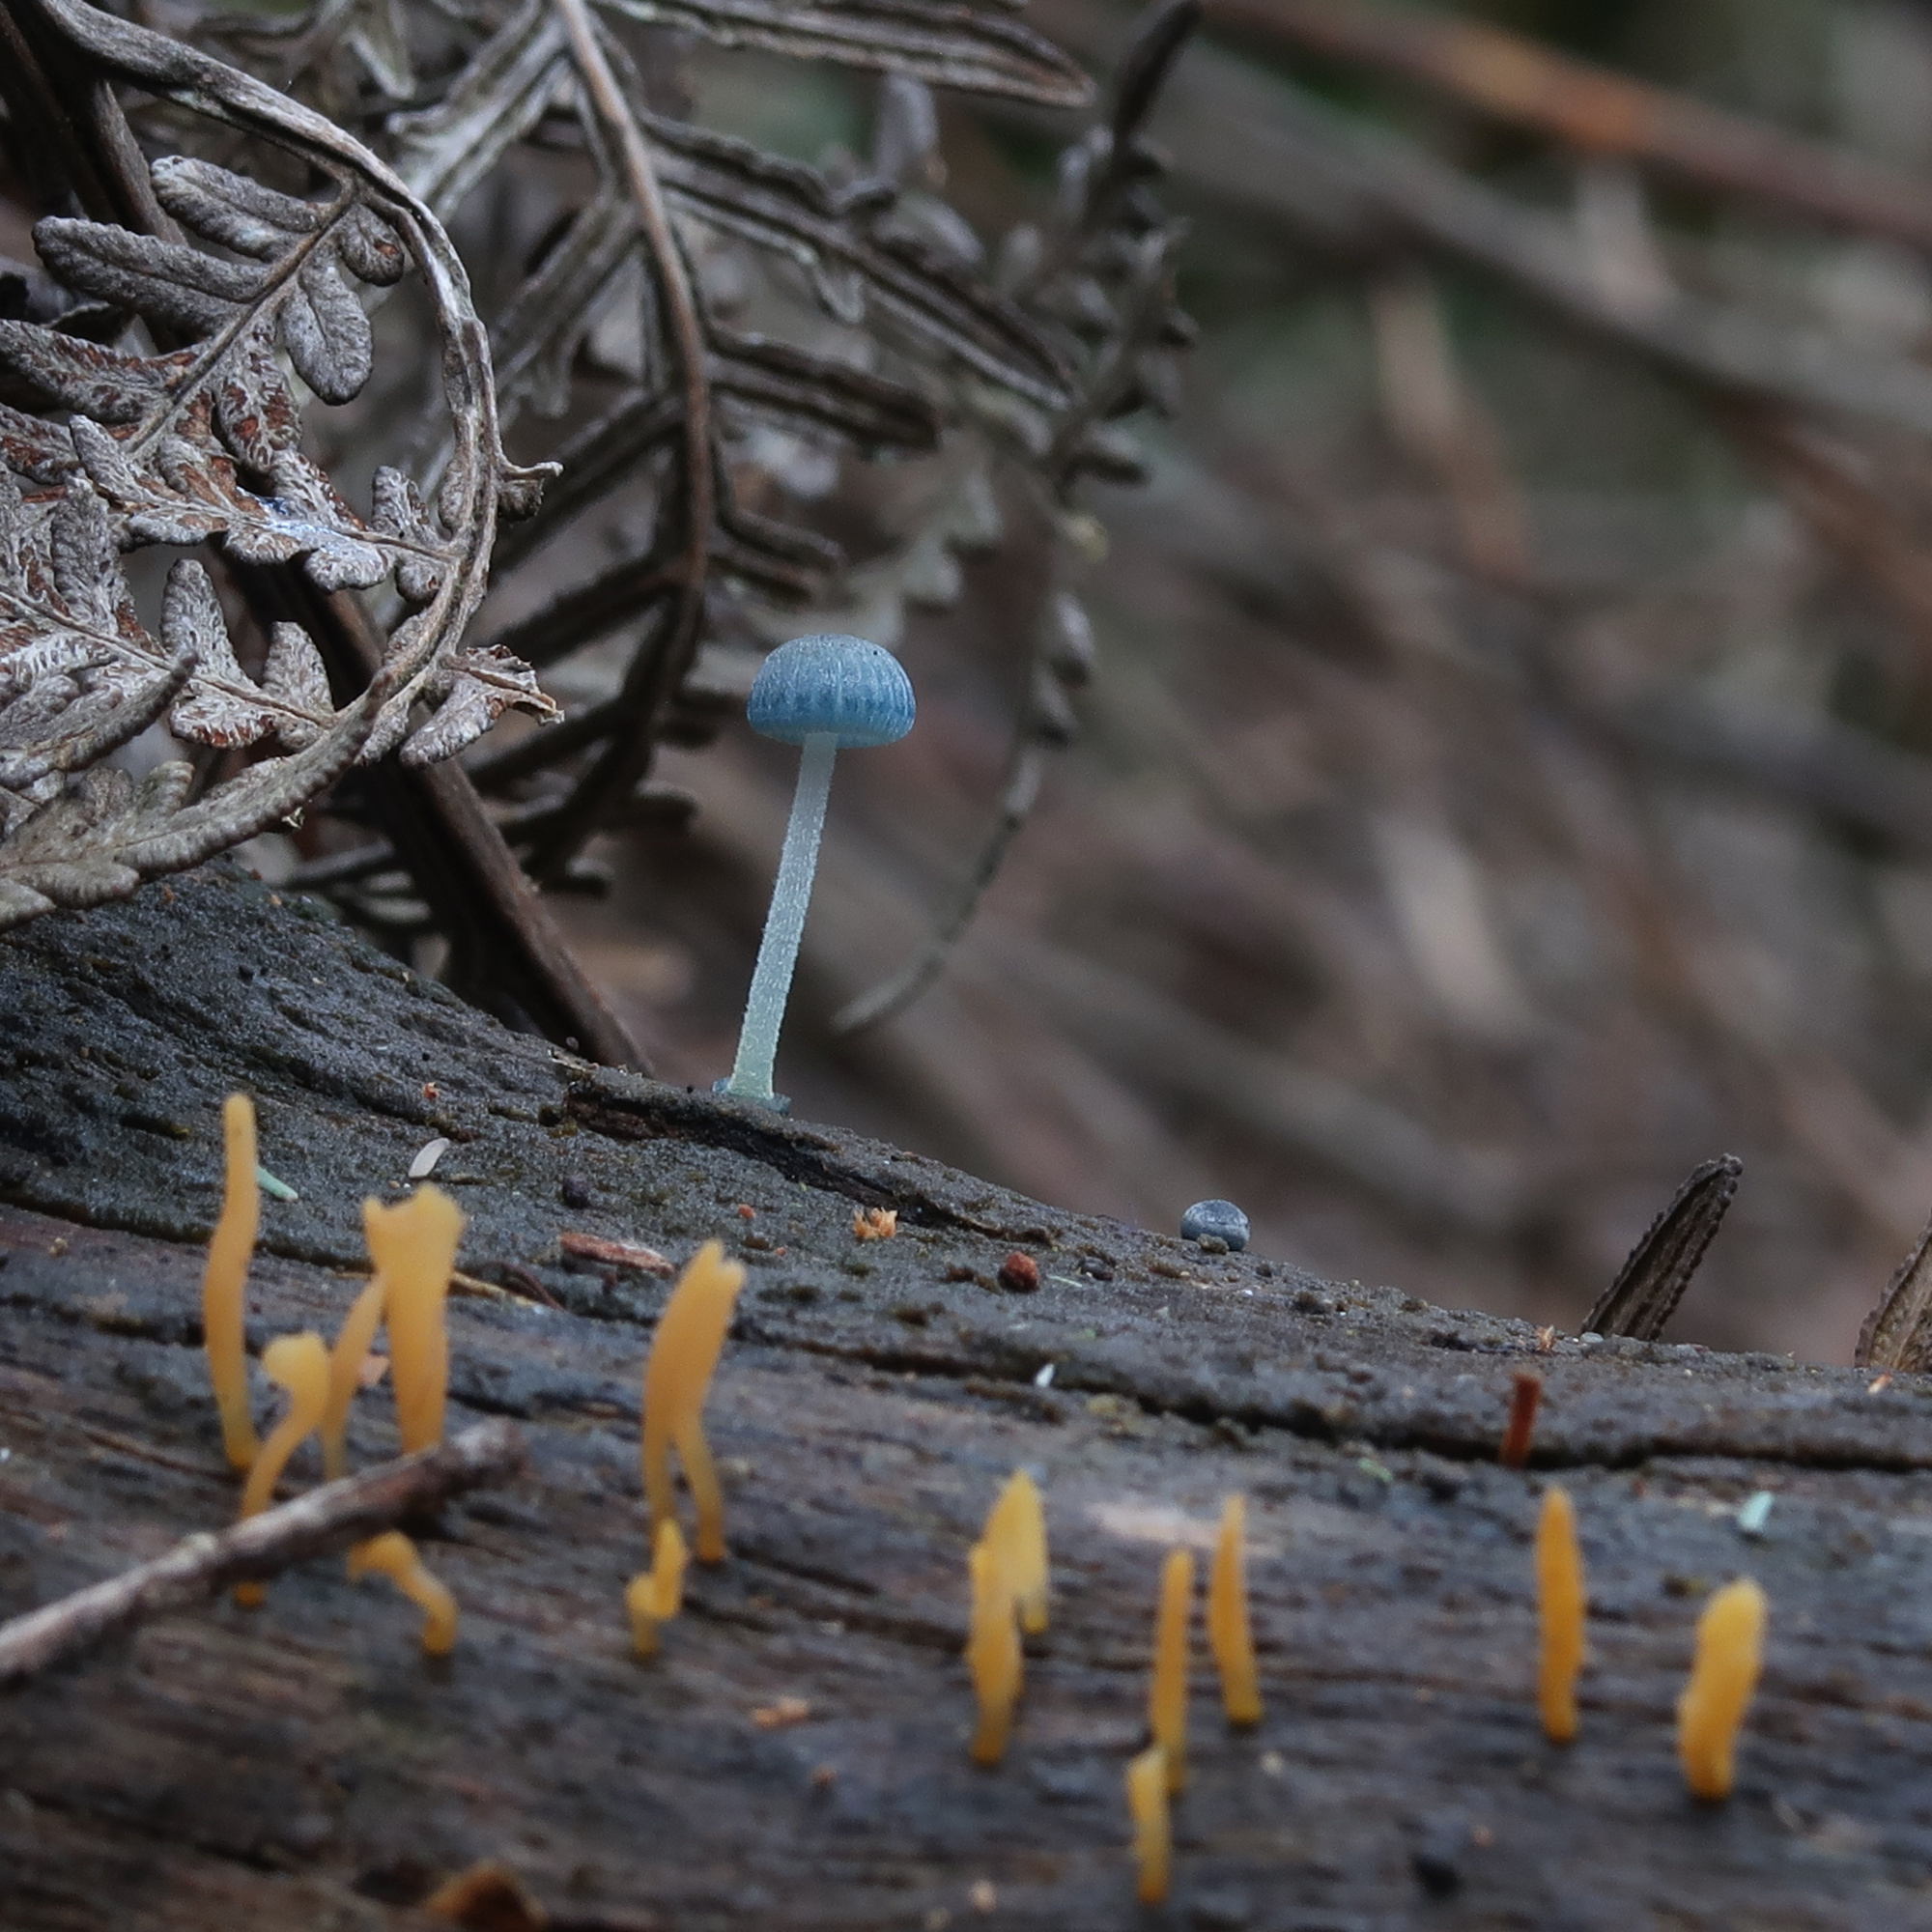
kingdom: Fungi
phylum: Basidiomycota
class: Agaricomycetes
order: Agaricales
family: Mycenaceae
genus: Mycena
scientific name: Mycena interrupta
